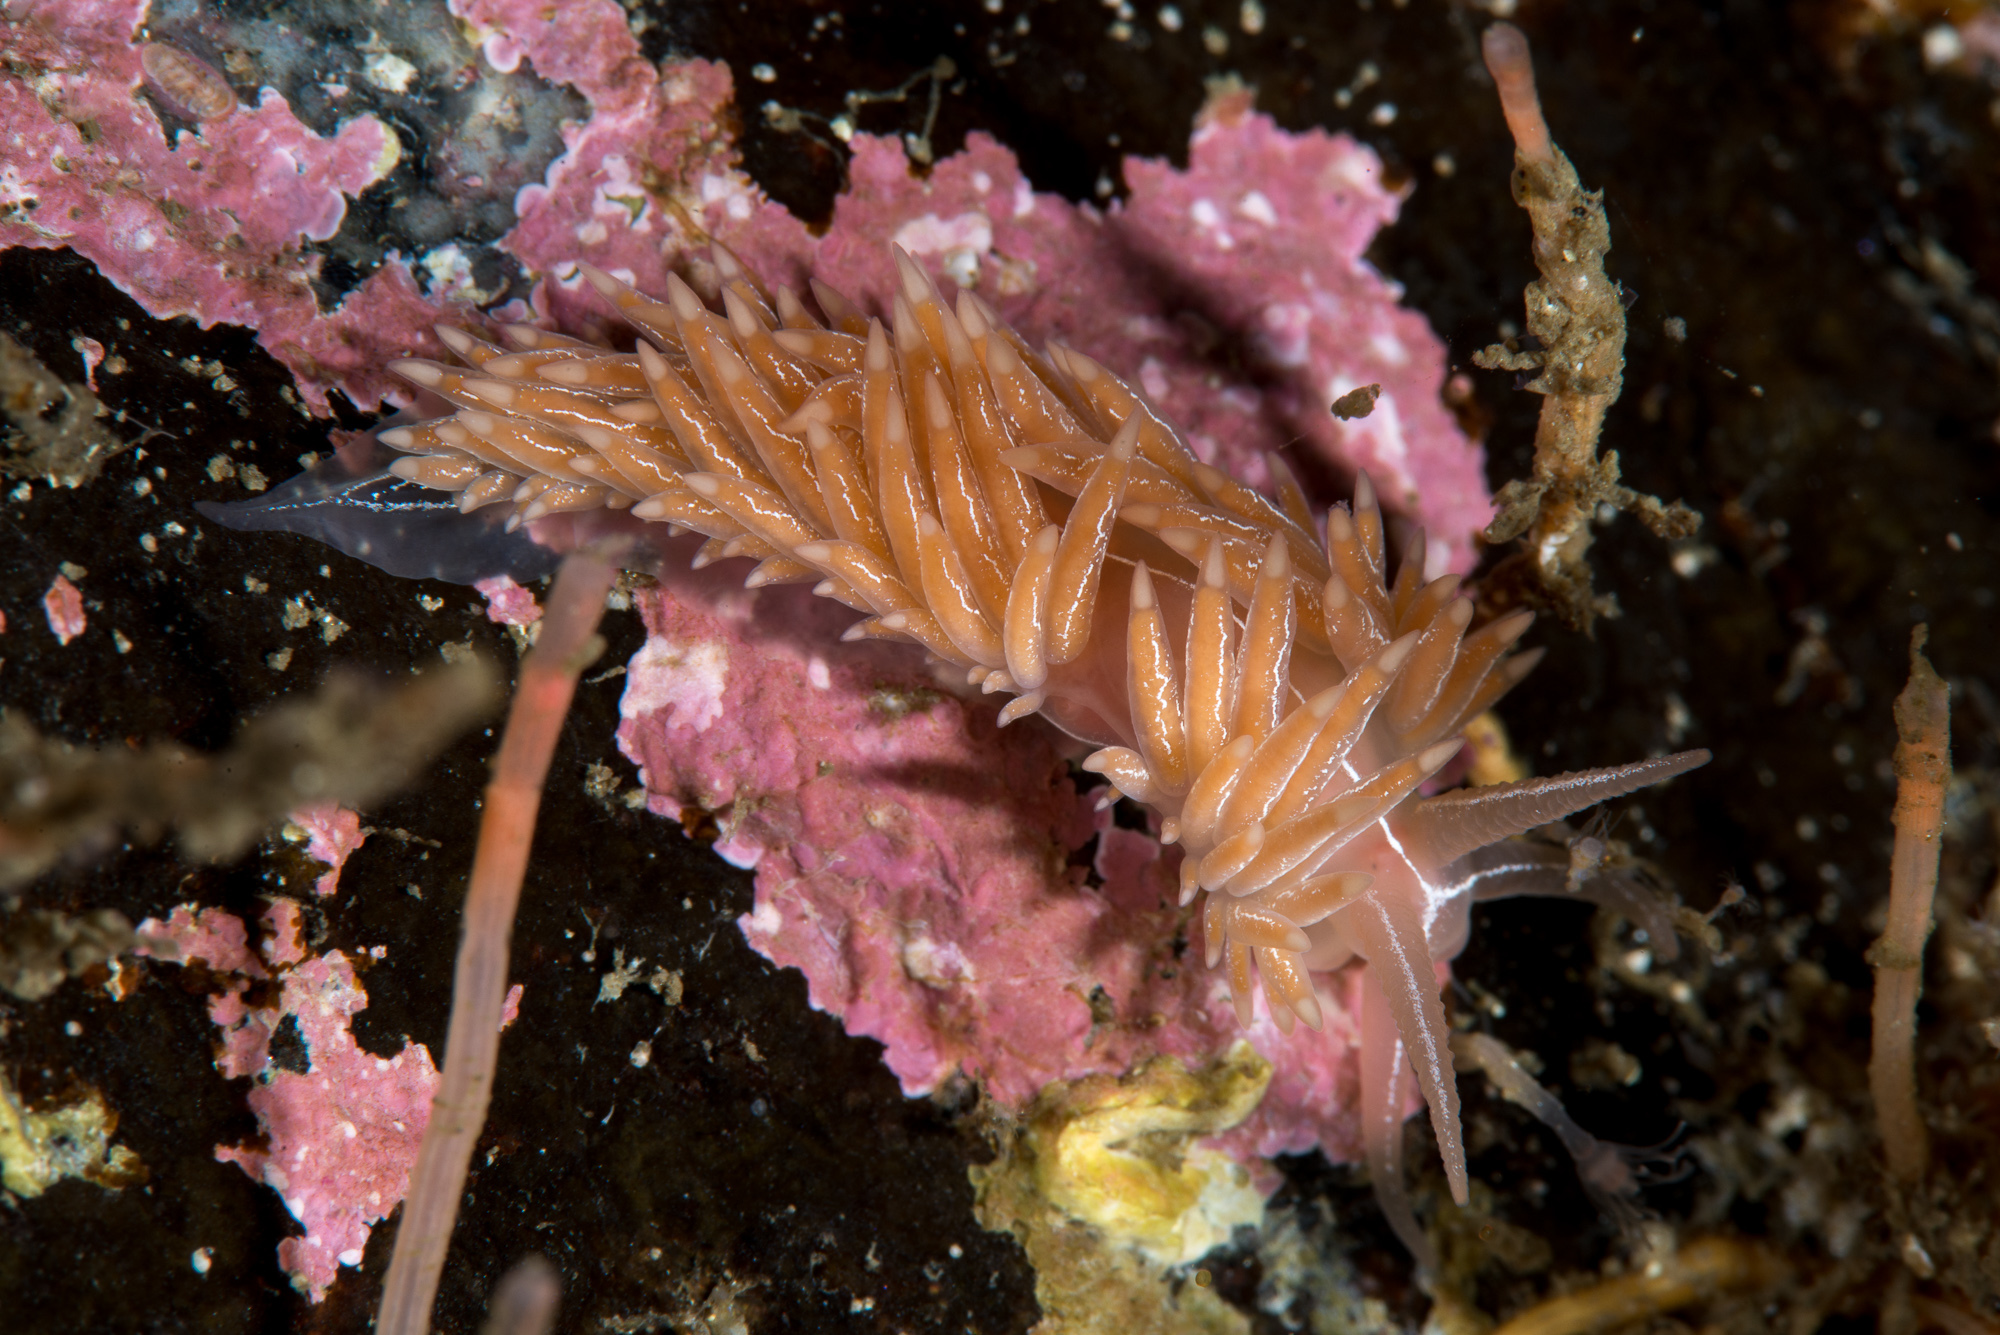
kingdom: Animalia
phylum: Mollusca
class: Gastropoda
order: Nudibranchia
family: Coryphellidae
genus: Coryphella
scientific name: Coryphella chriskaugei
